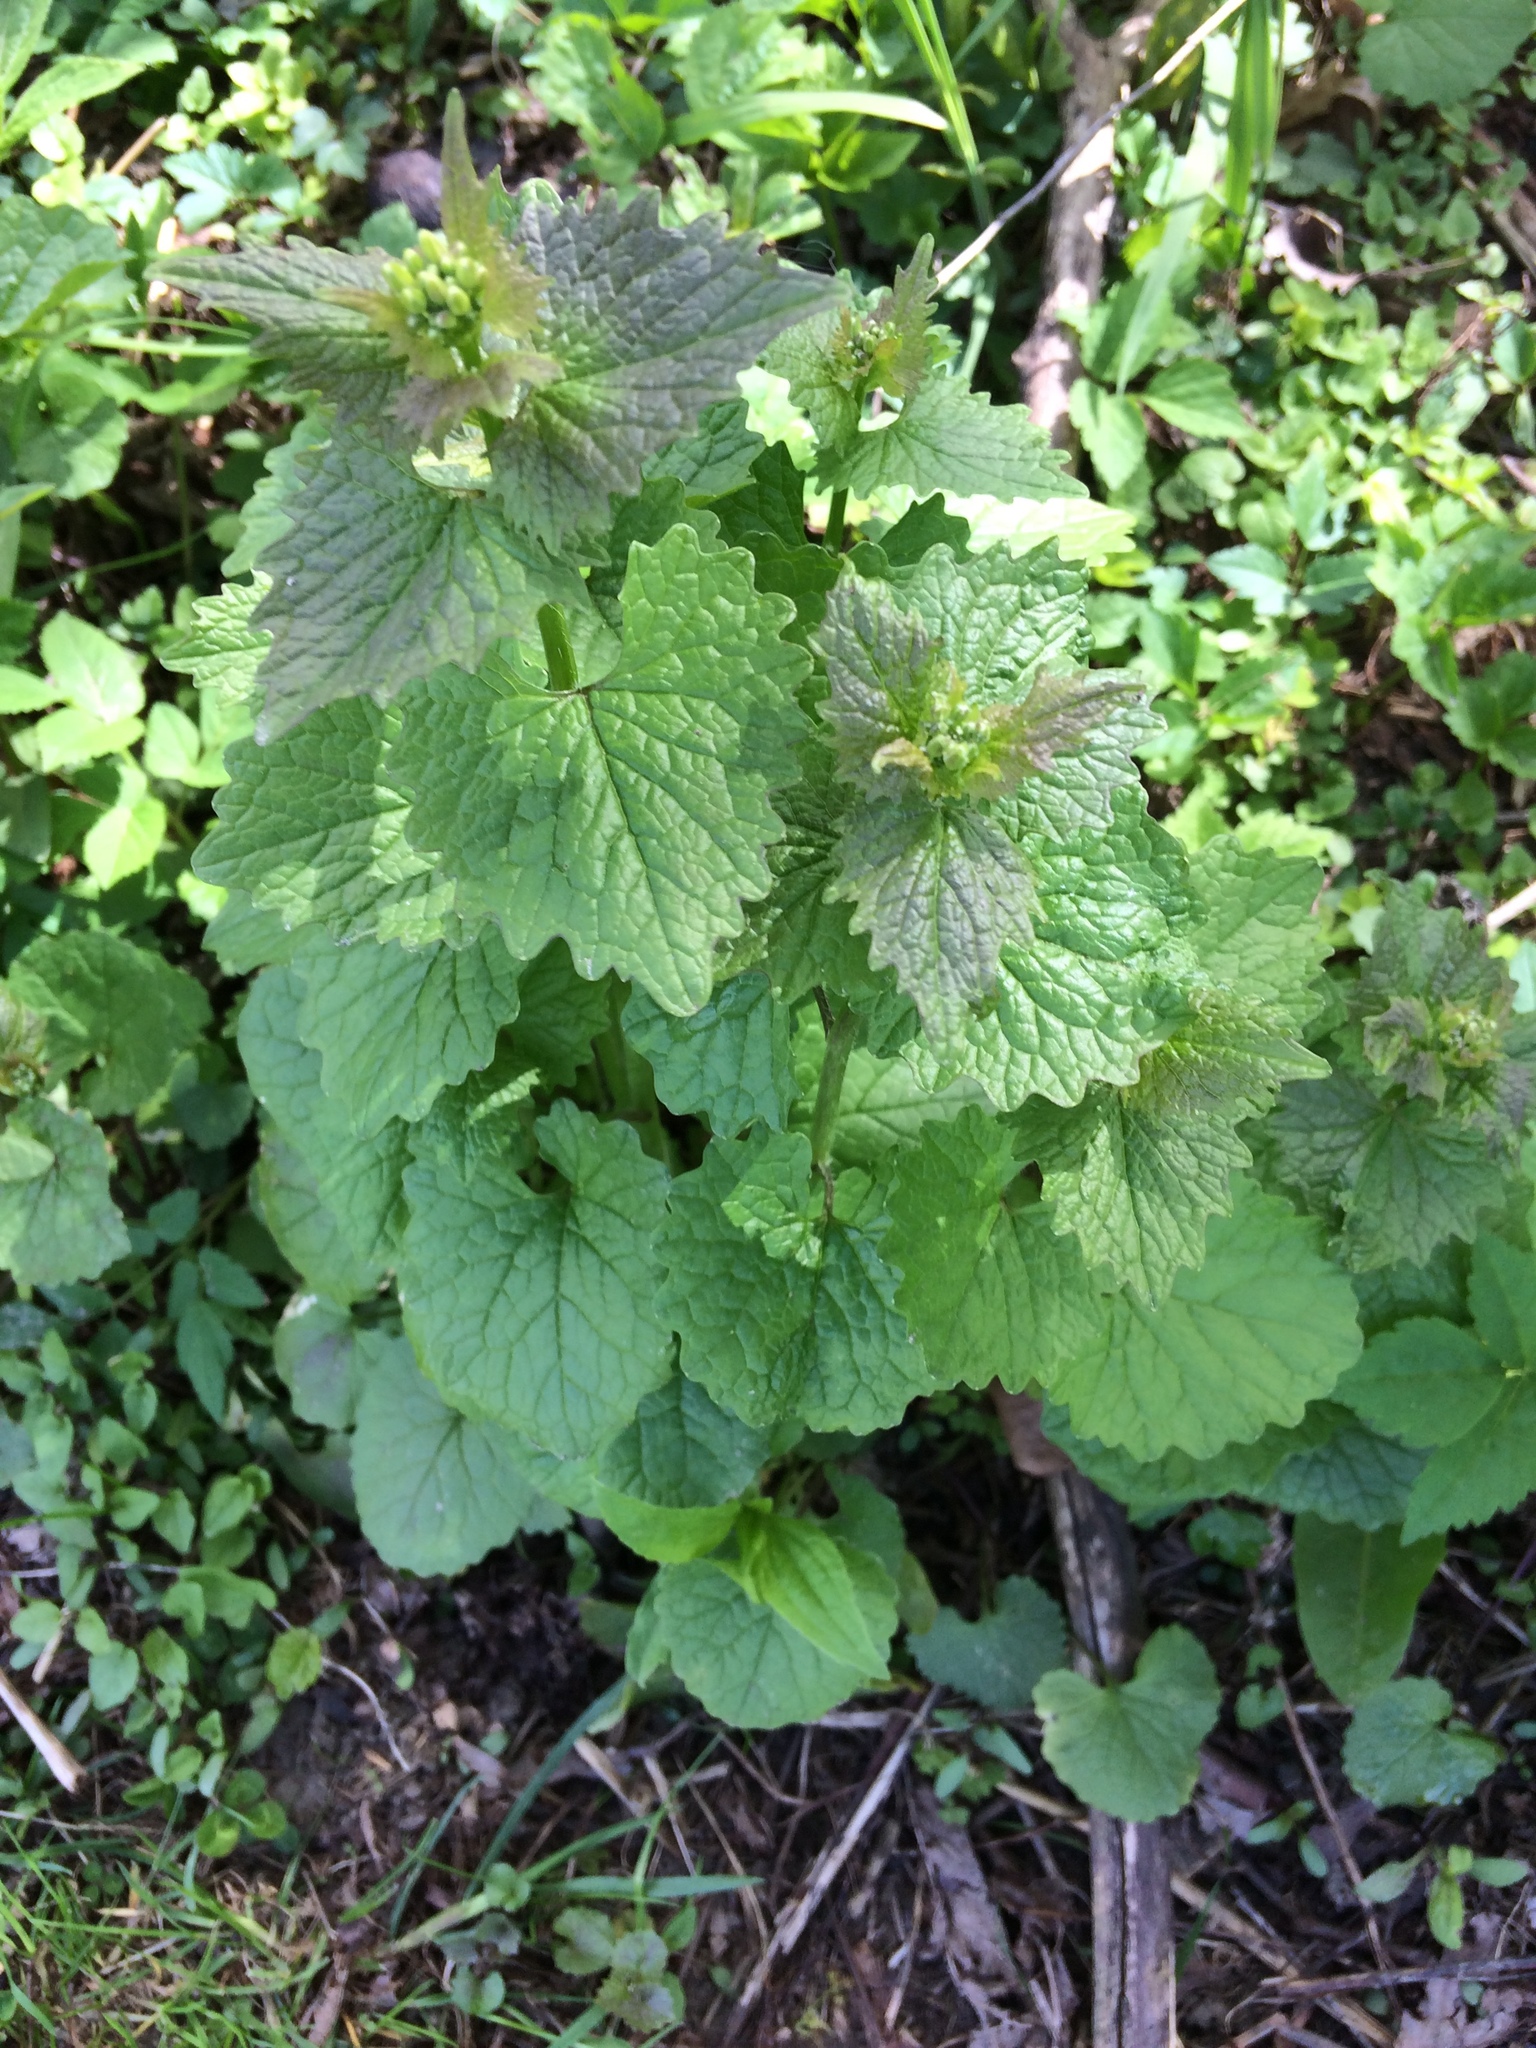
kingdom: Plantae
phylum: Tracheophyta
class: Magnoliopsida
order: Brassicales
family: Brassicaceae
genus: Alliaria
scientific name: Alliaria petiolata
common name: Garlic mustard
